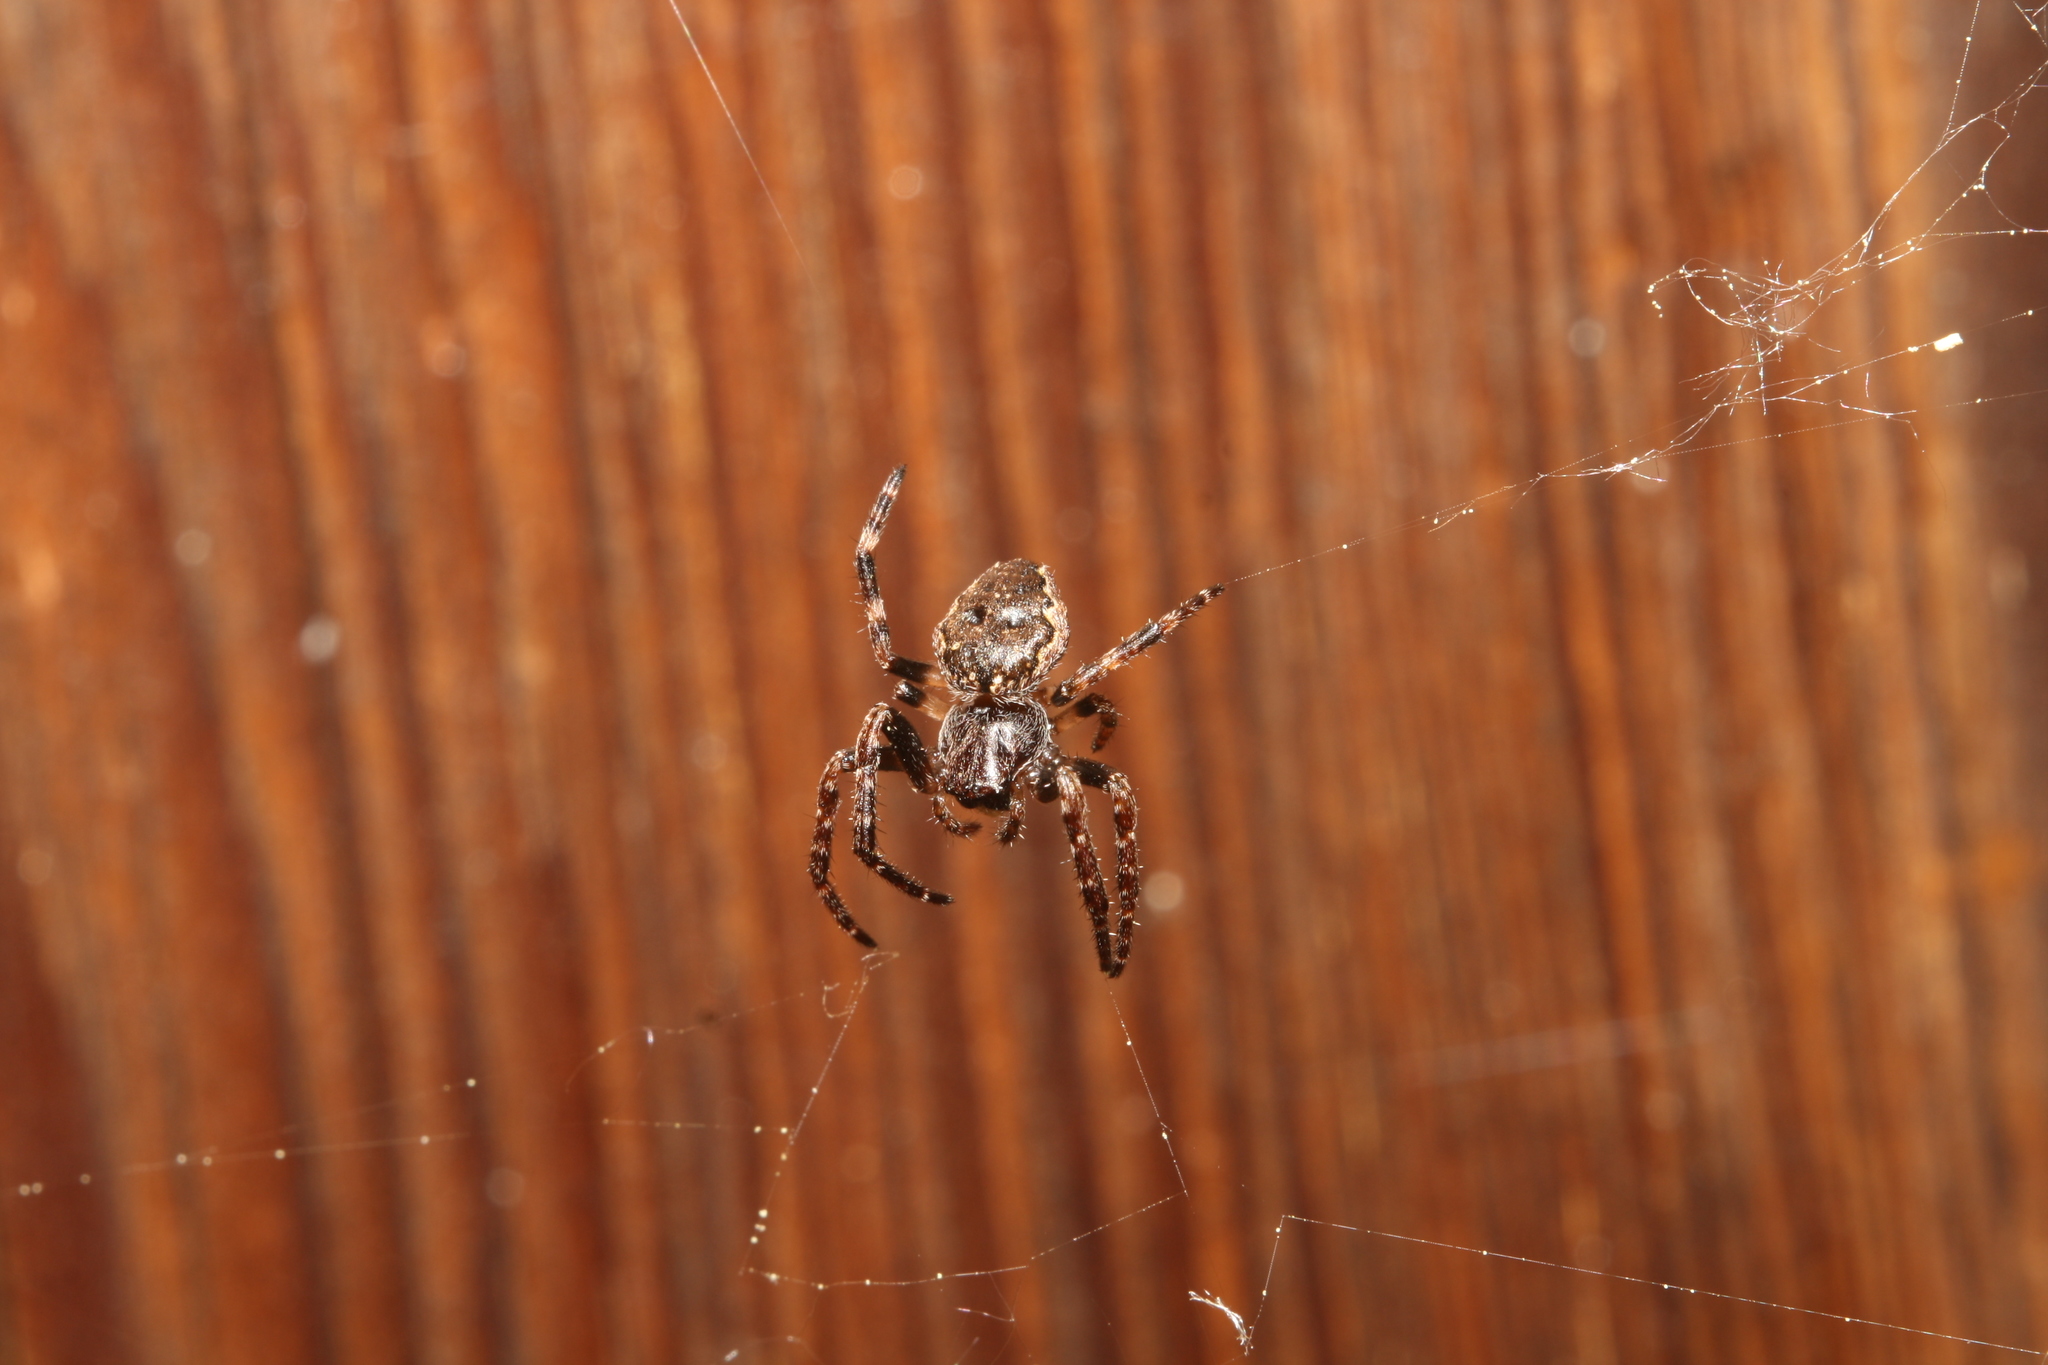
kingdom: Animalia
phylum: Arthropoda
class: Arachnida
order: Araneae
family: Araneidae
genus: Nuctenea
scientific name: Nuctenea umbratica
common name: Toad spider
